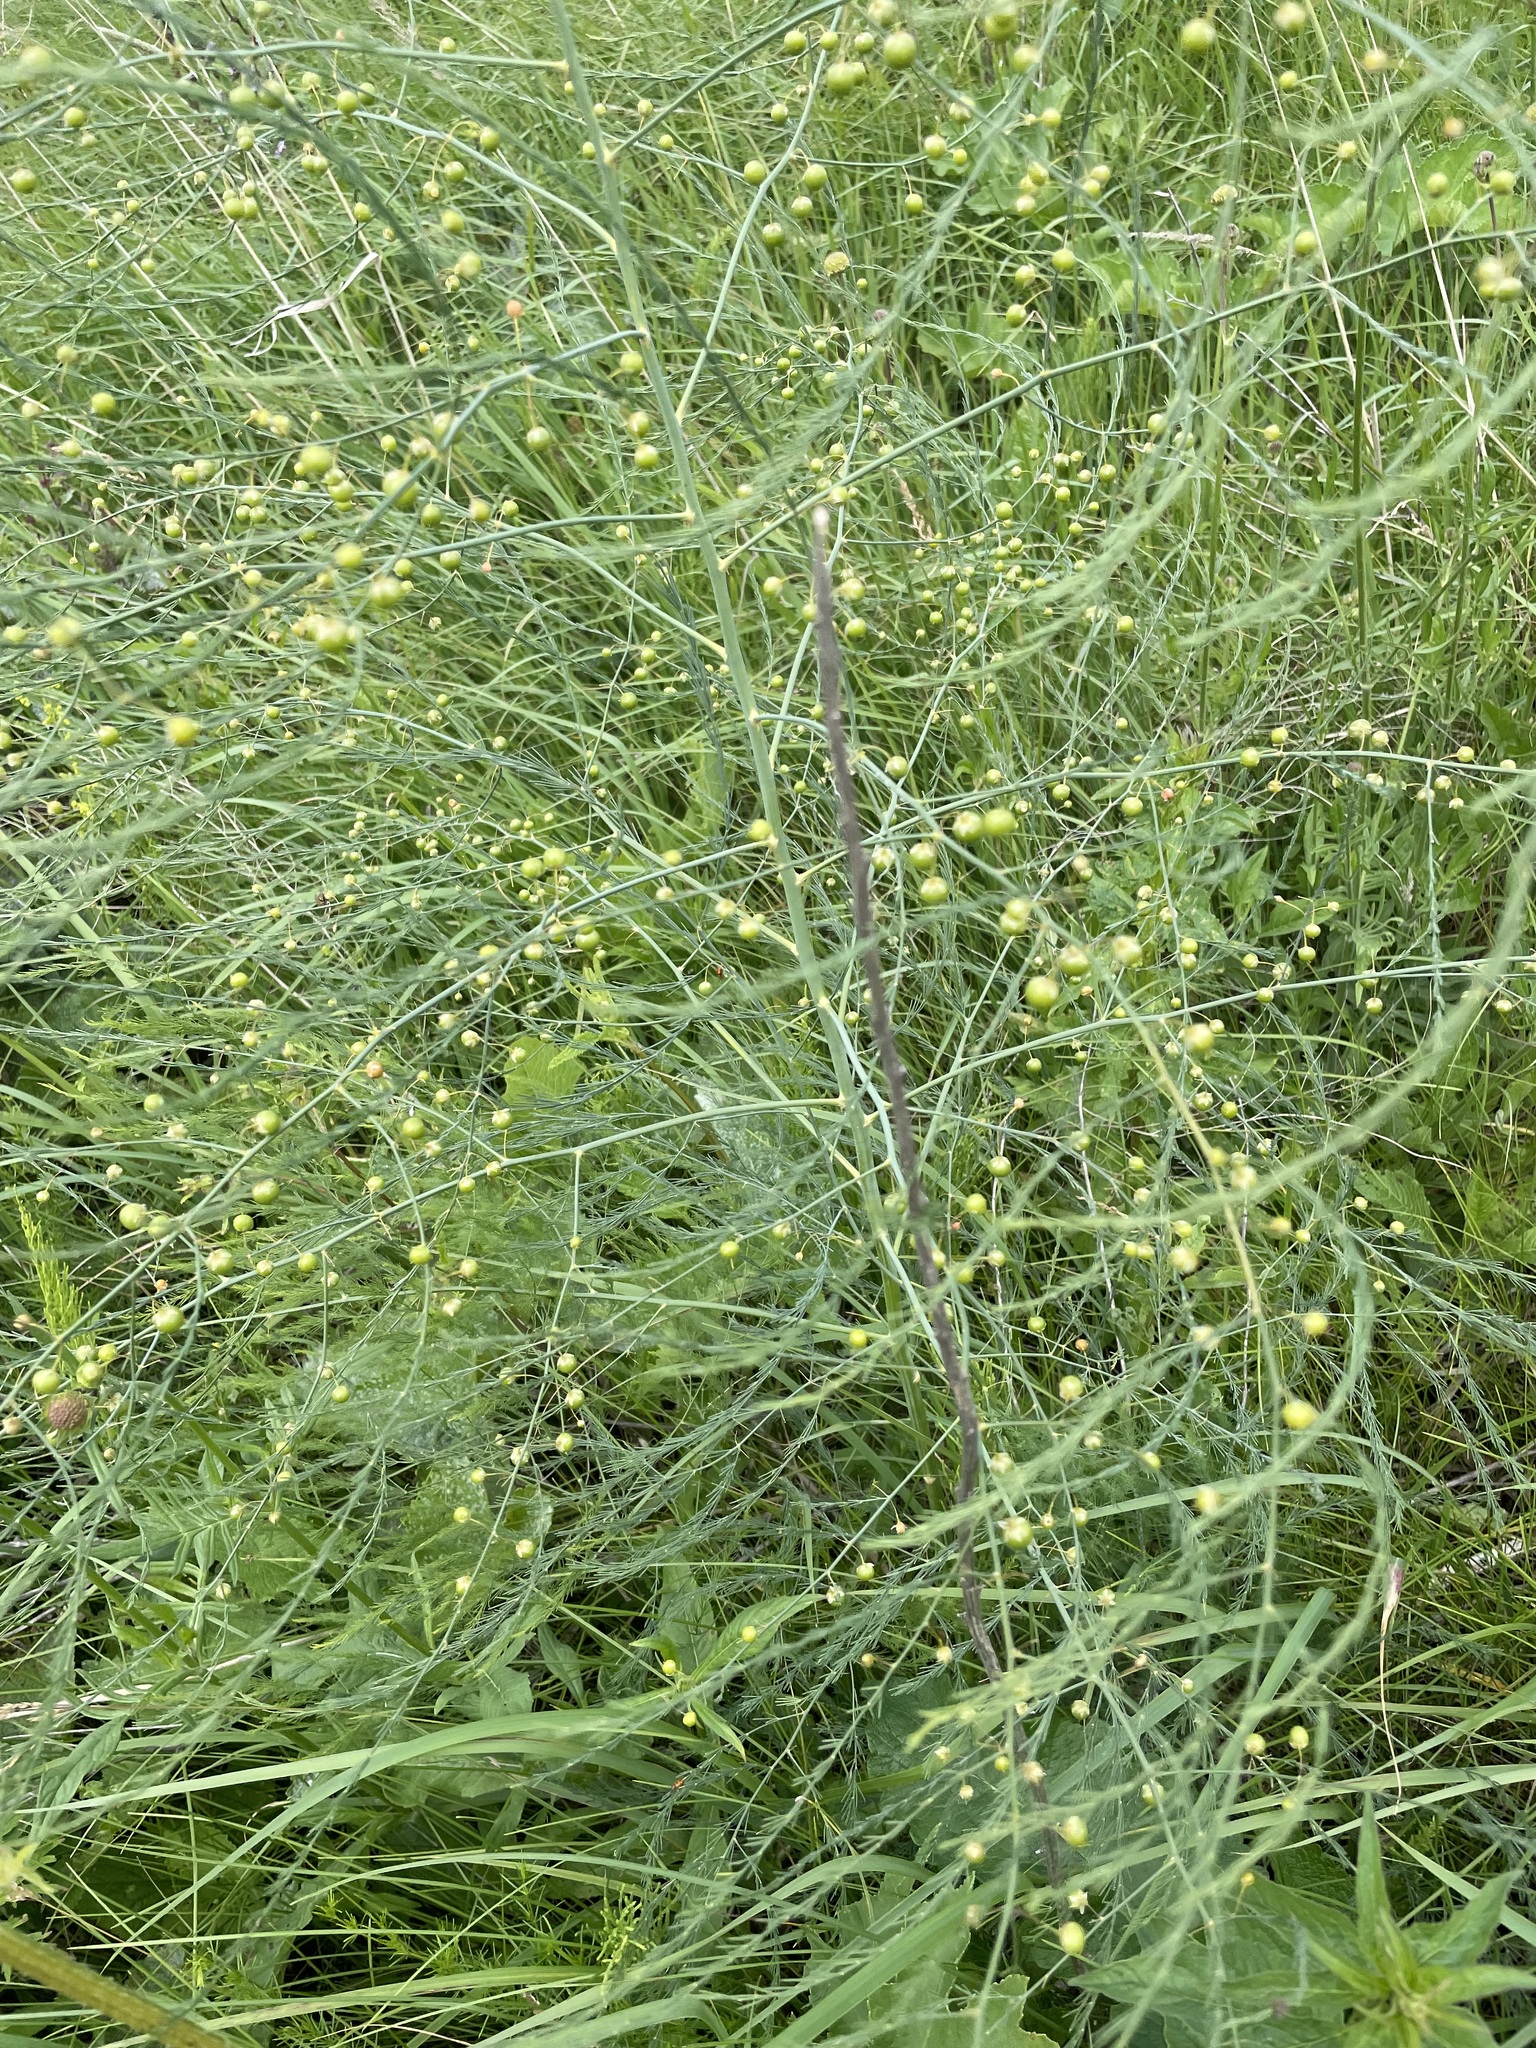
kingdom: Plantae
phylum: Tracheophyta
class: Liliopsida
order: Asparagales
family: Asparagaceae
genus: Asparagus
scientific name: Asparagus officinalis
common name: Garden asparagus
